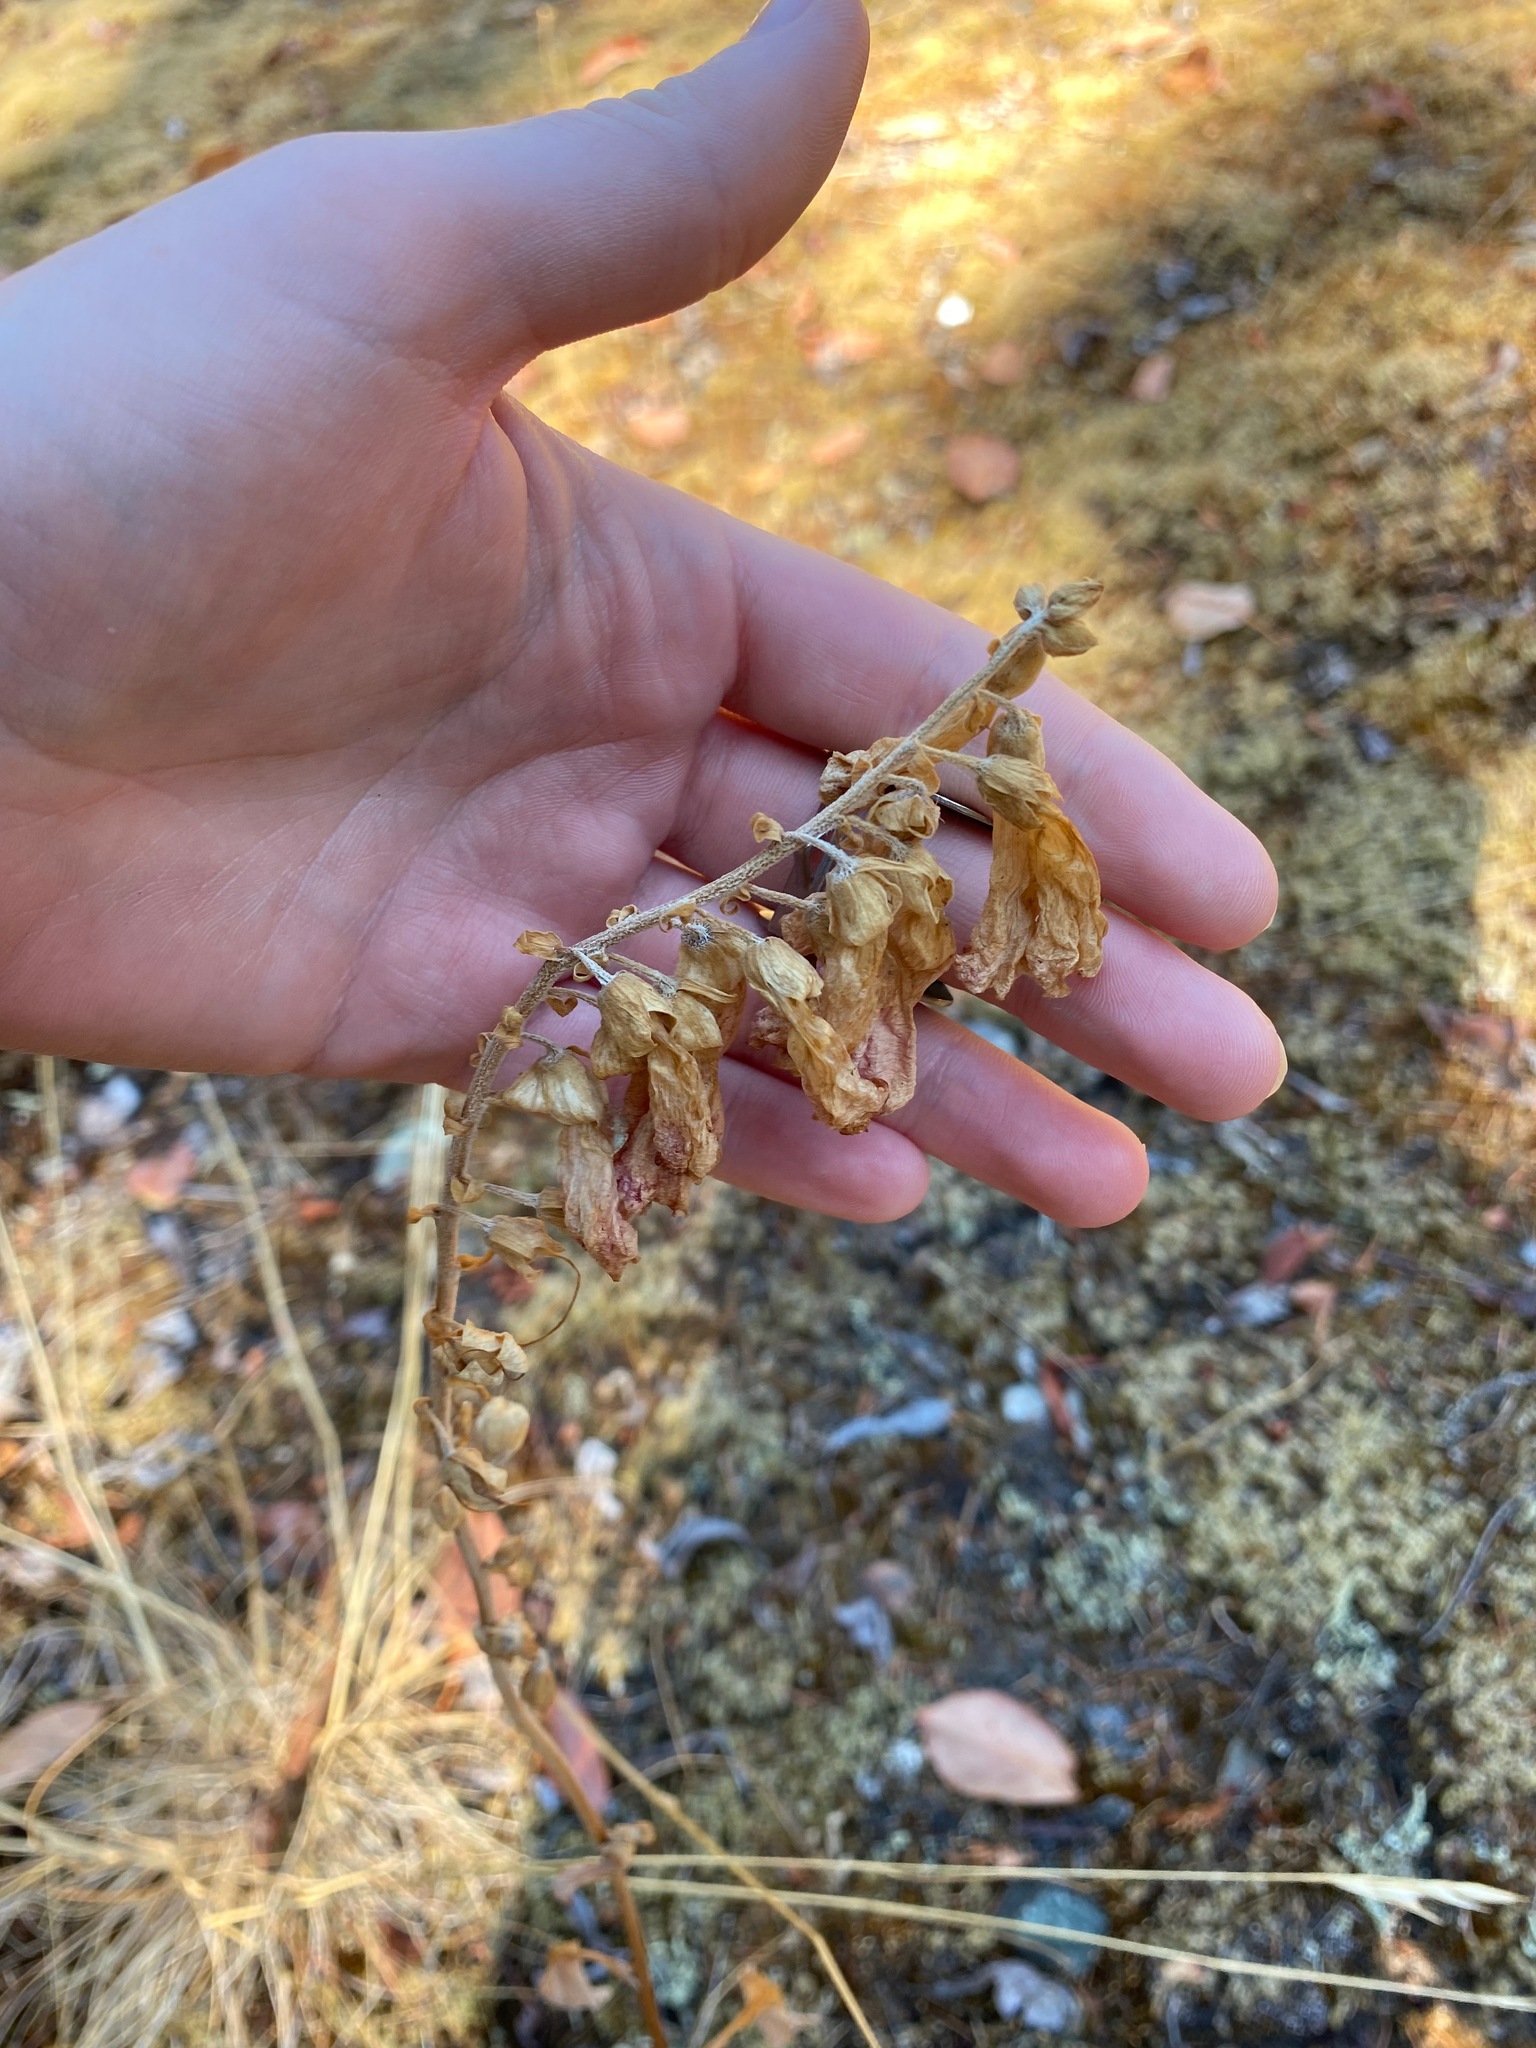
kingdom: Plantae
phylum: Tracheophyta
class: Magnoliopsida
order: Lamiales
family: Plantaginaceae
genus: Digitalis
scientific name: Digitalis purpurea
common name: Foxglove
